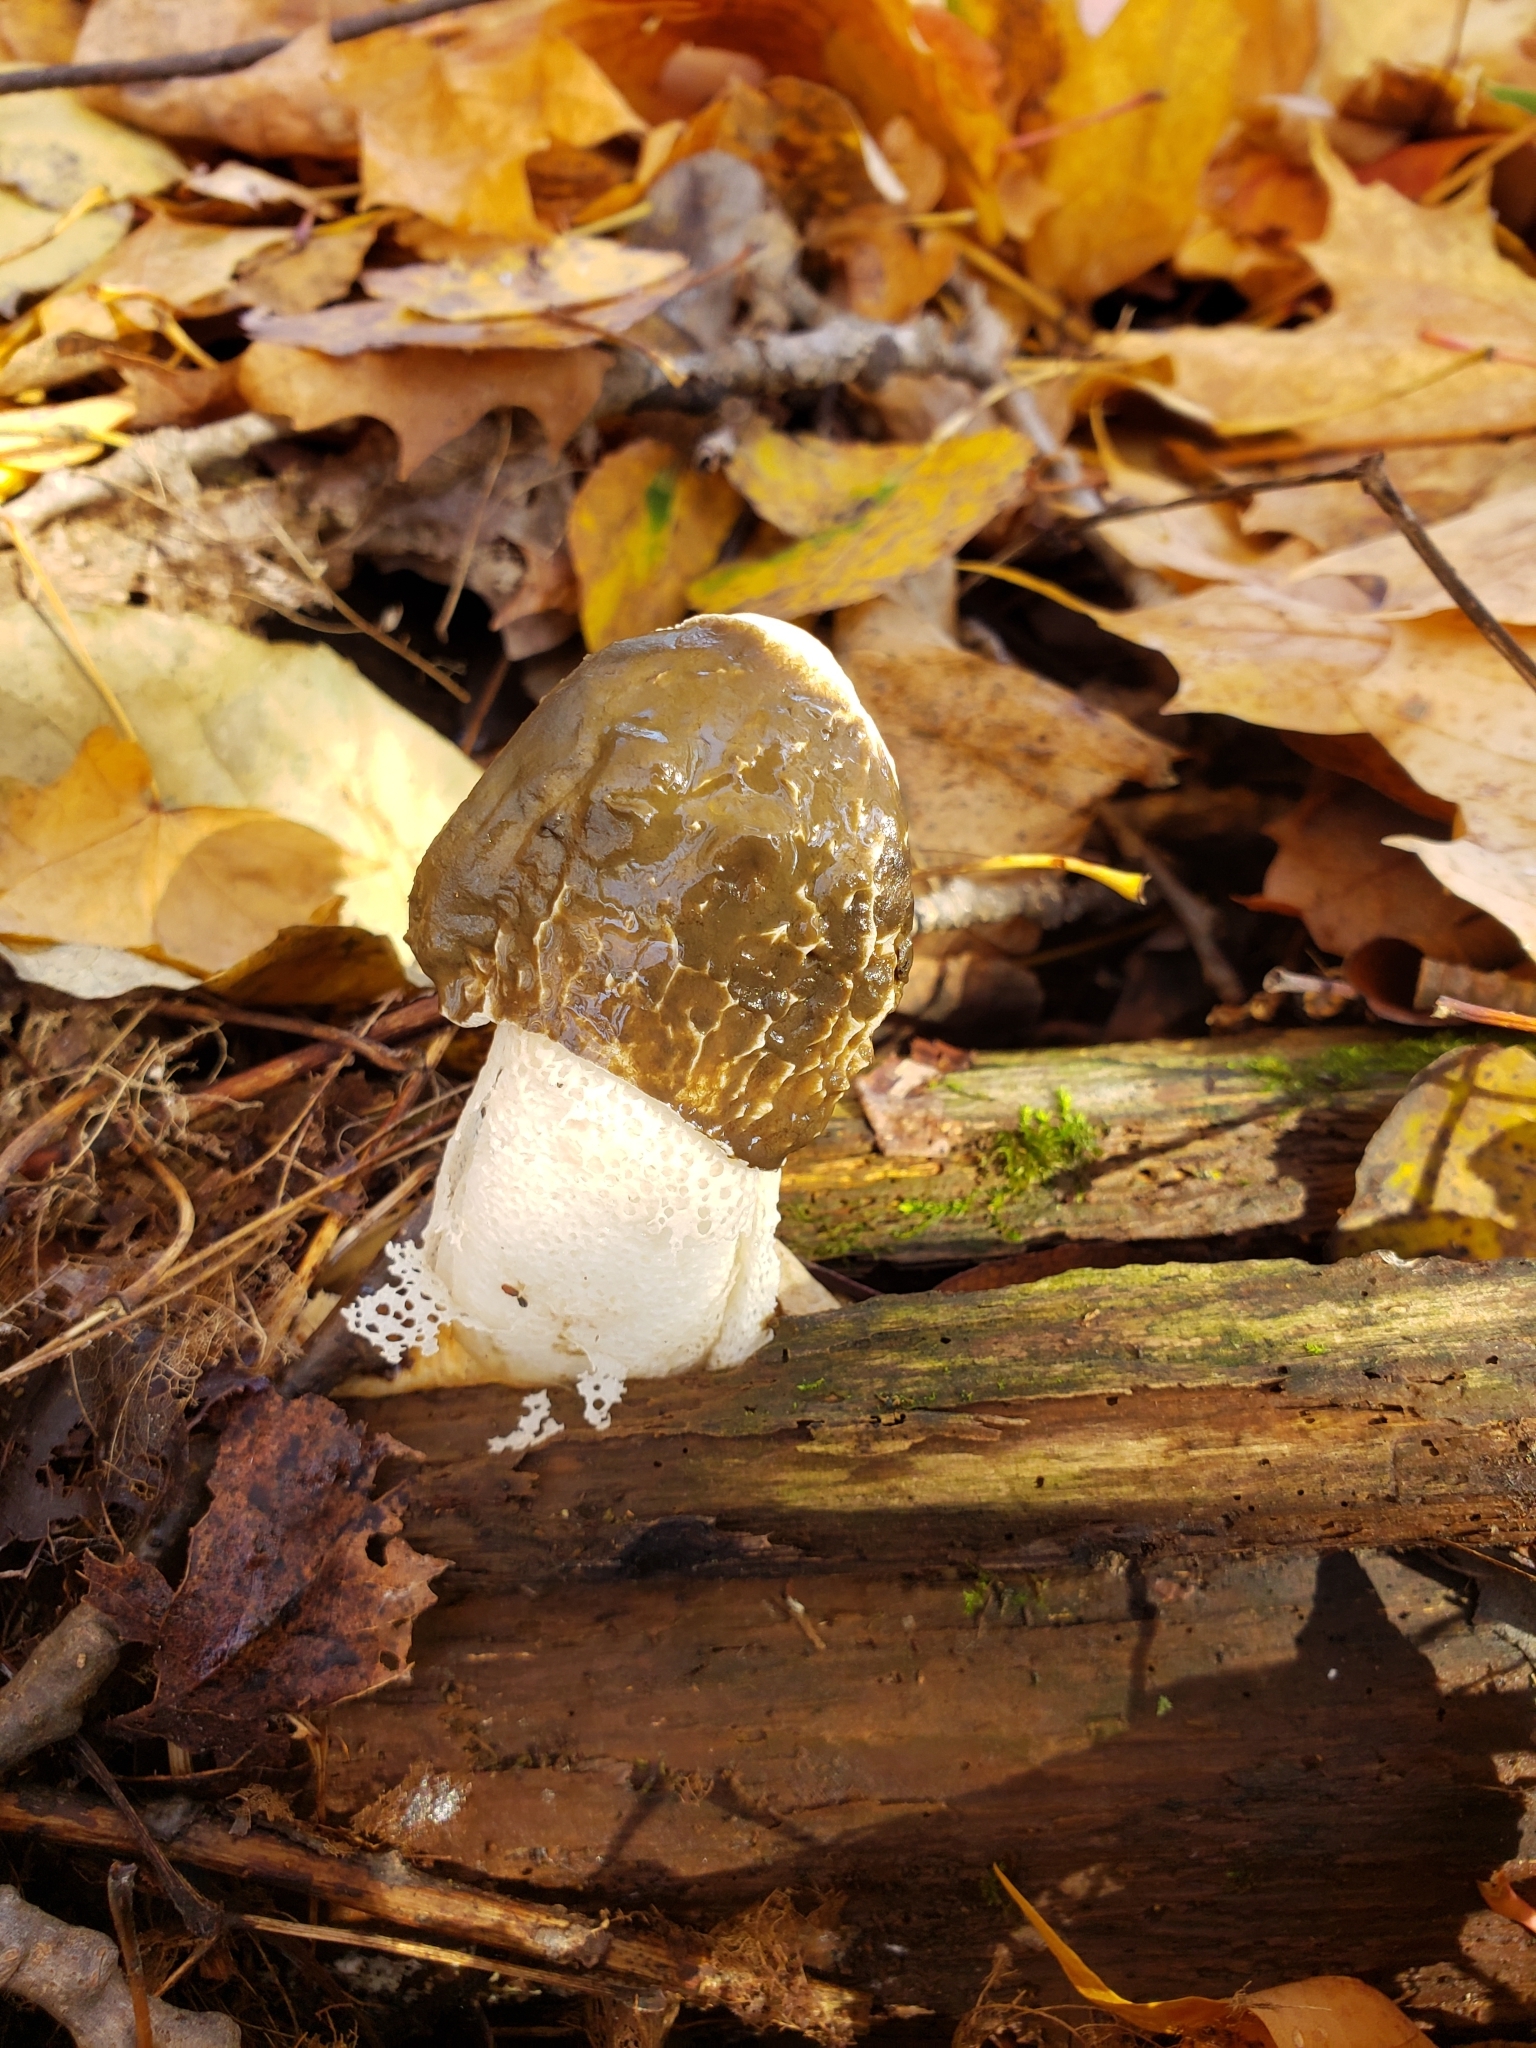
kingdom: Fungi
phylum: Basidiomycota
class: Agaricomycetes
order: Phallales
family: Phallaceae
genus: Phallus
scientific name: Phallus indusiatus
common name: Bridal veil stinkhorn
